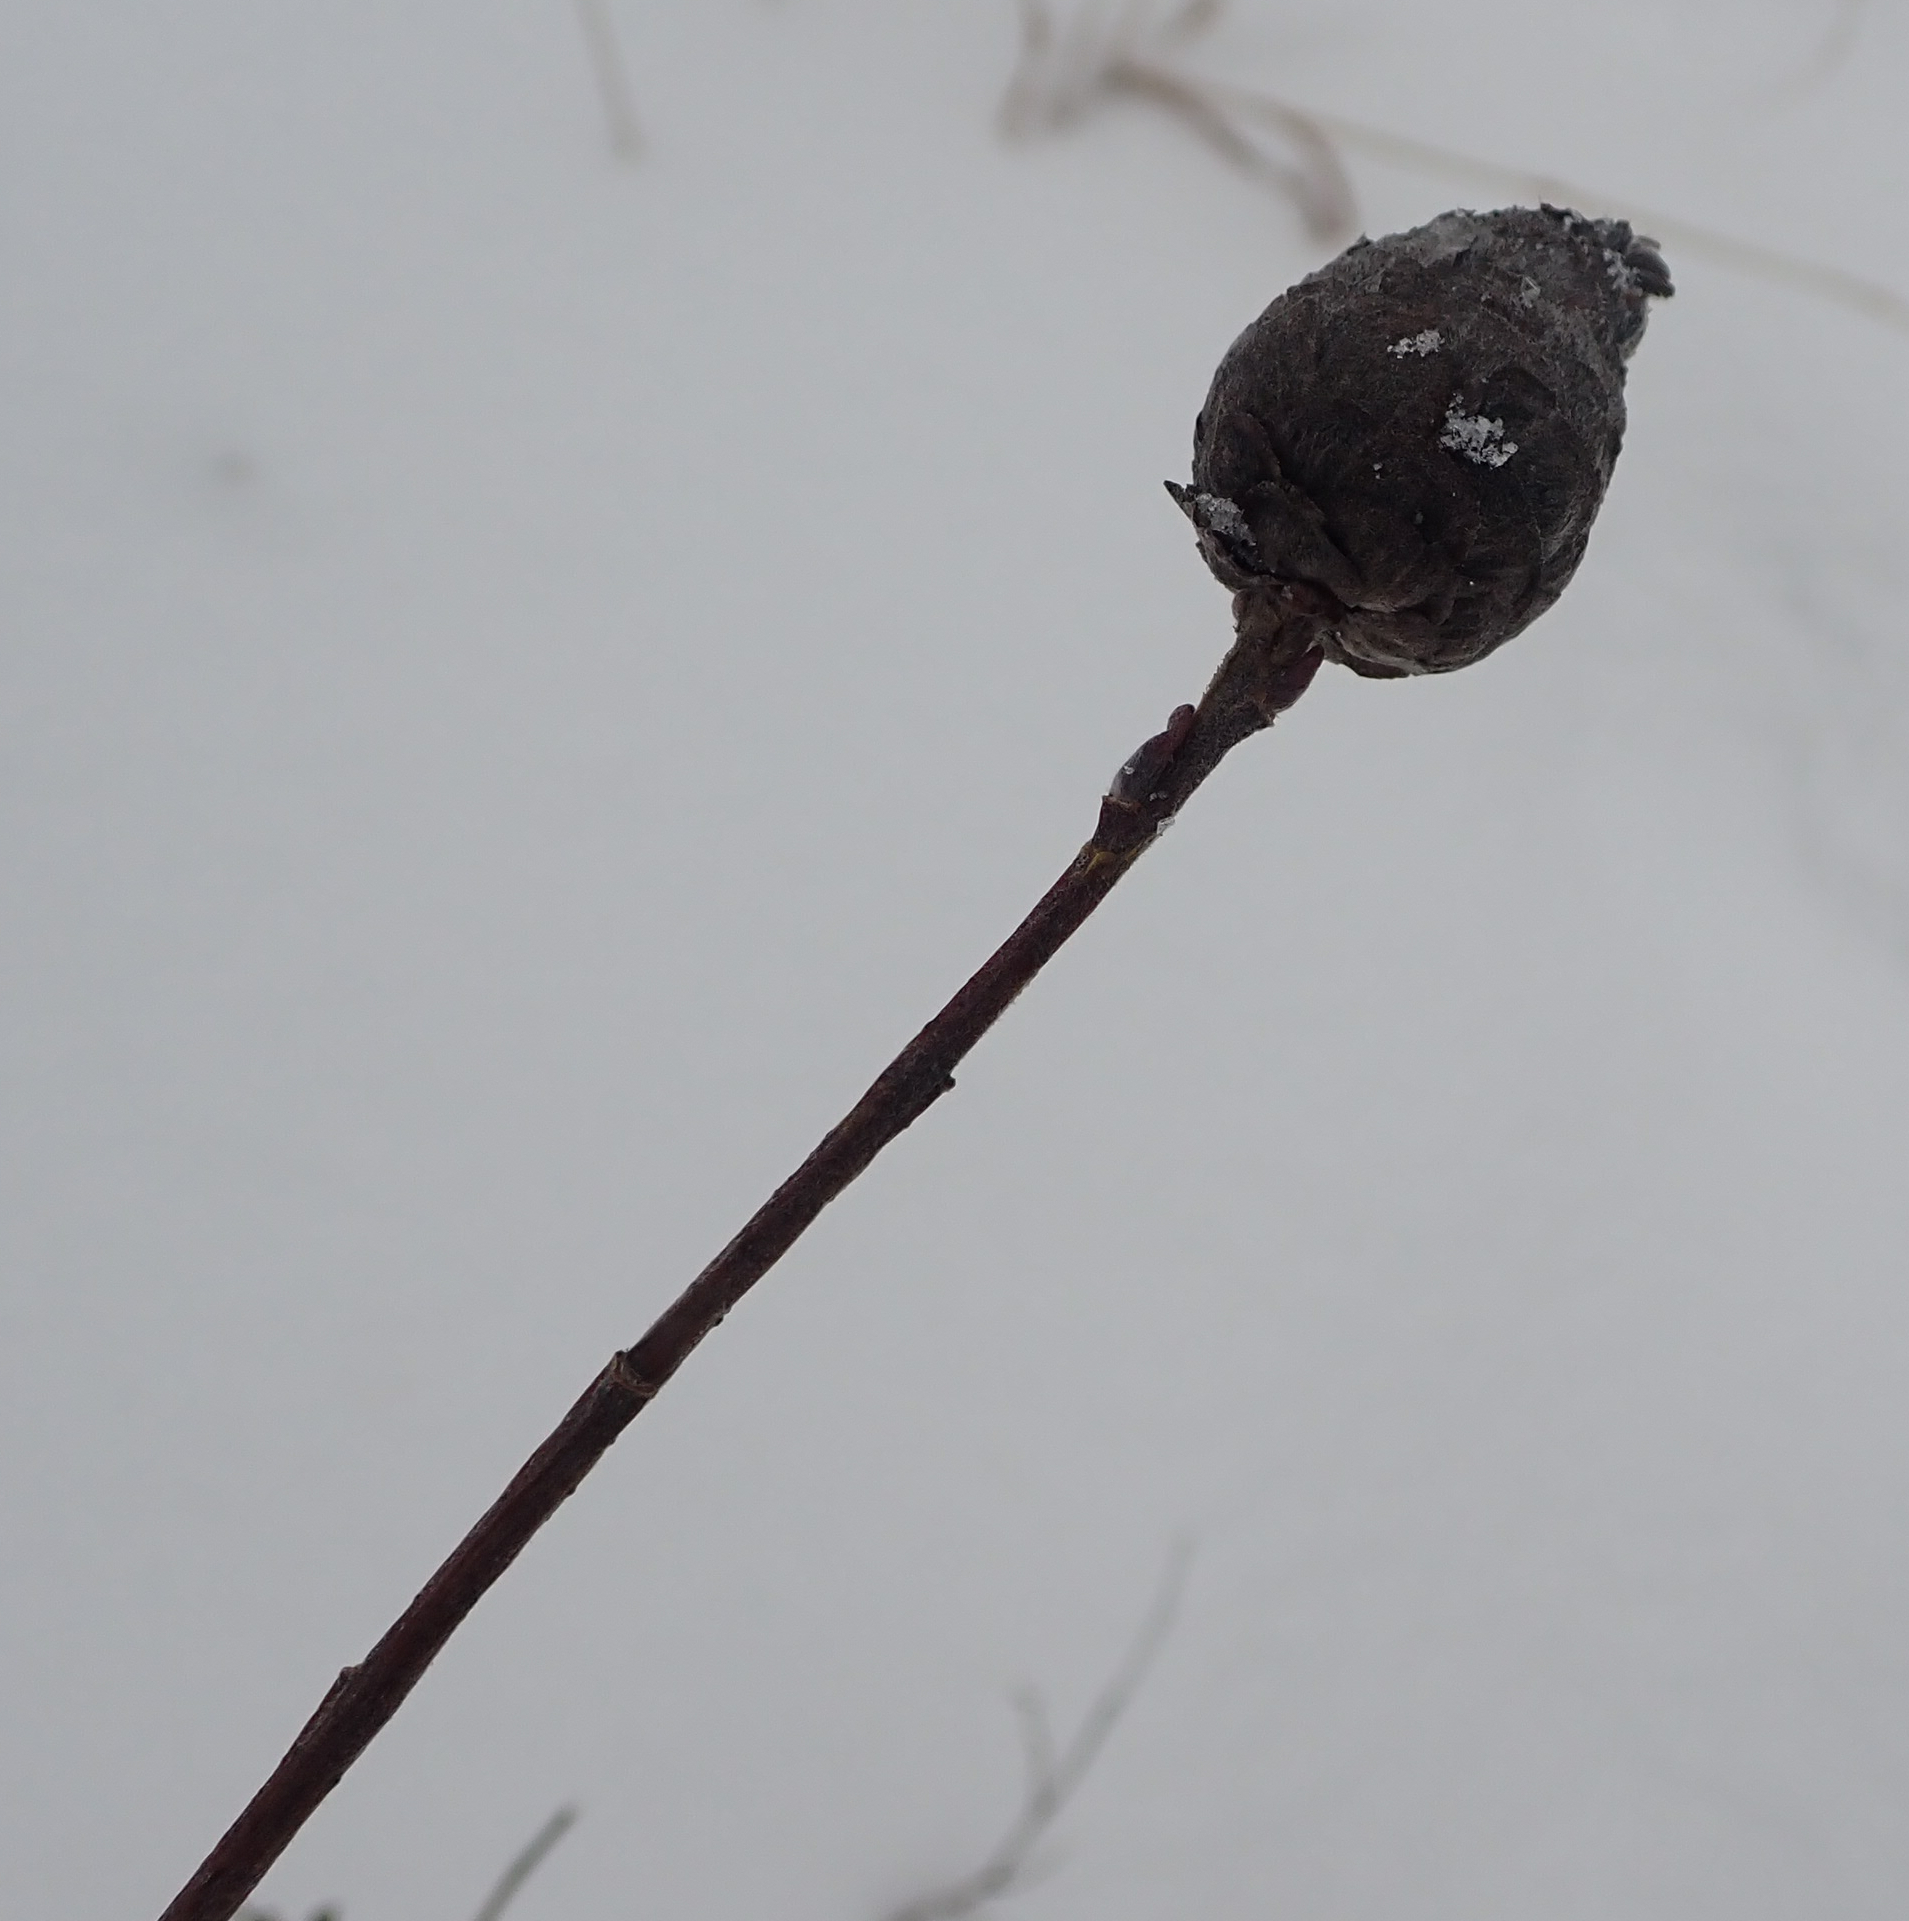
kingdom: Animalia
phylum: Arthropoda
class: Insecta
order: Diptera
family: Cecidomyiidae
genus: Rabdophaga
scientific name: Rabdophaga strobiloides
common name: Willow pinecone gall midge
